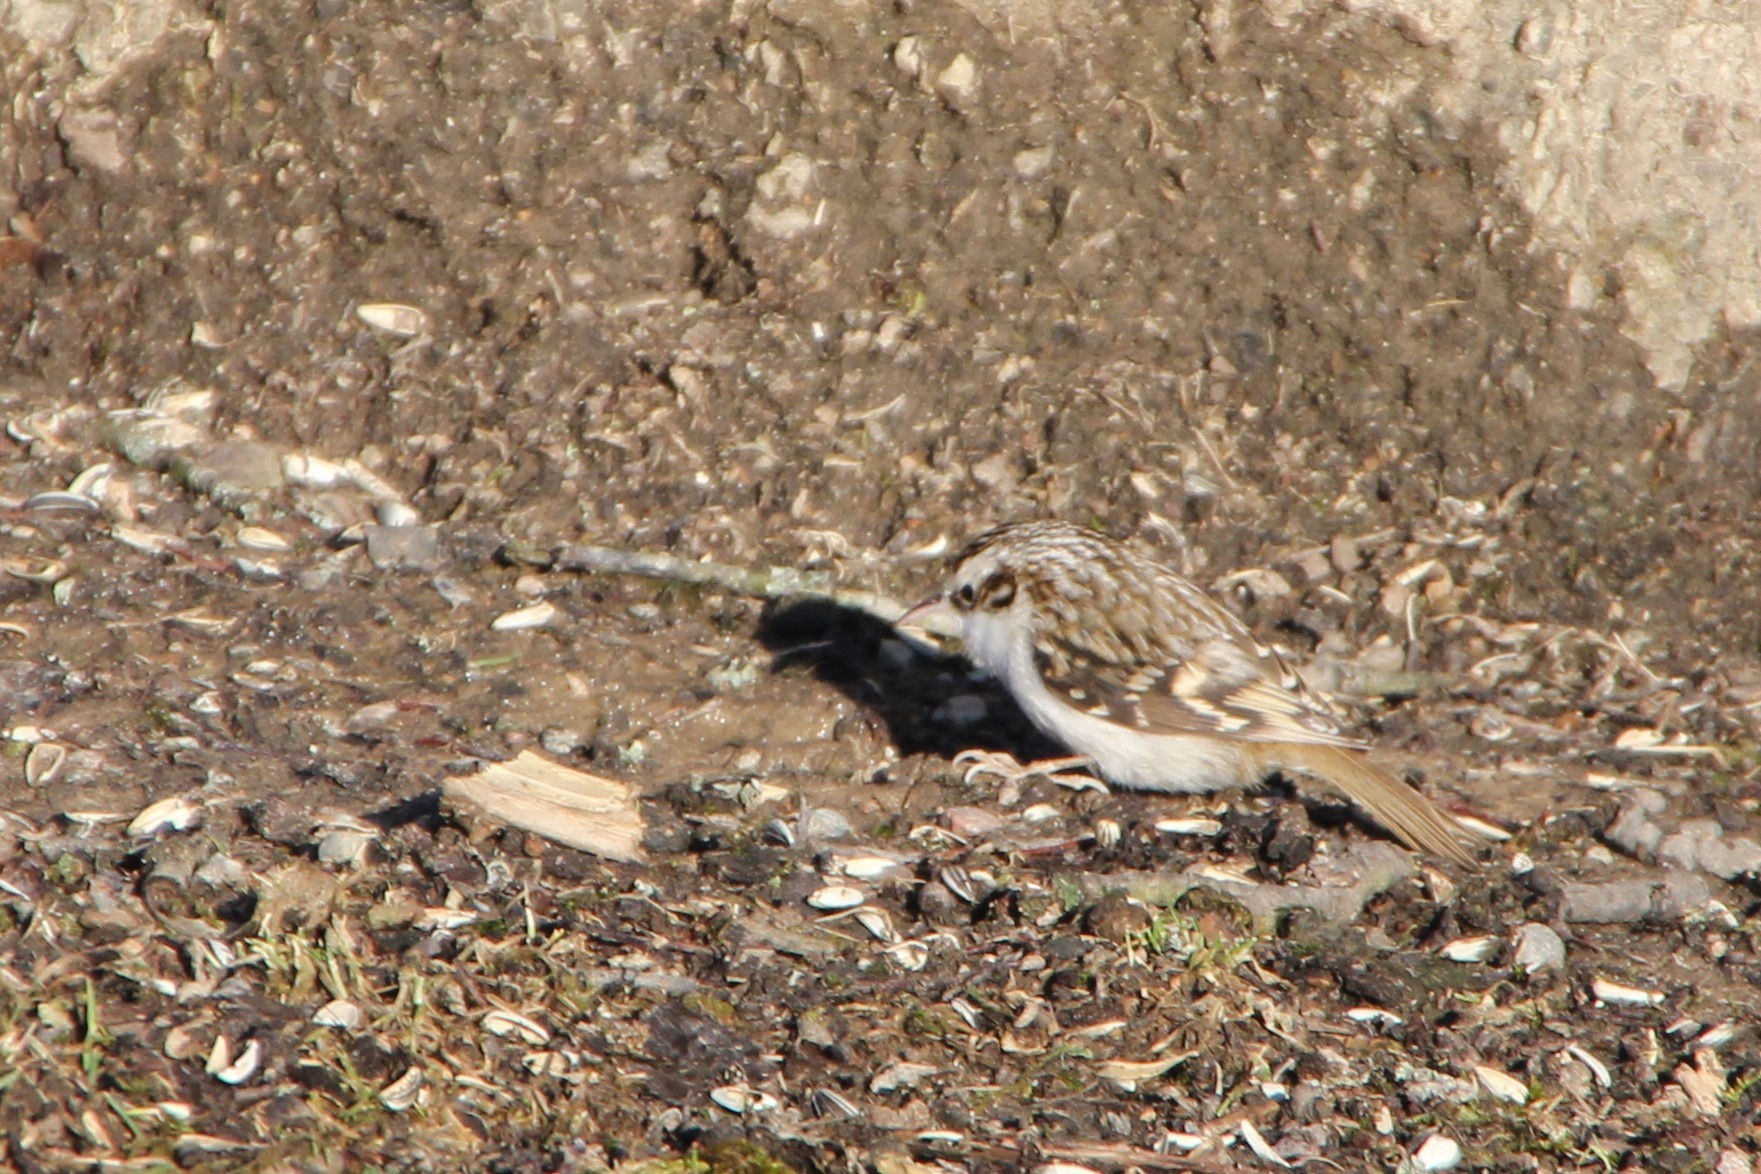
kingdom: Animalia
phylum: Chordata
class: Aves
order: Passeriformes
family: Certhiidae
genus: Certhia
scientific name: Certhia familiaris
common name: Eurasian treecreeper
